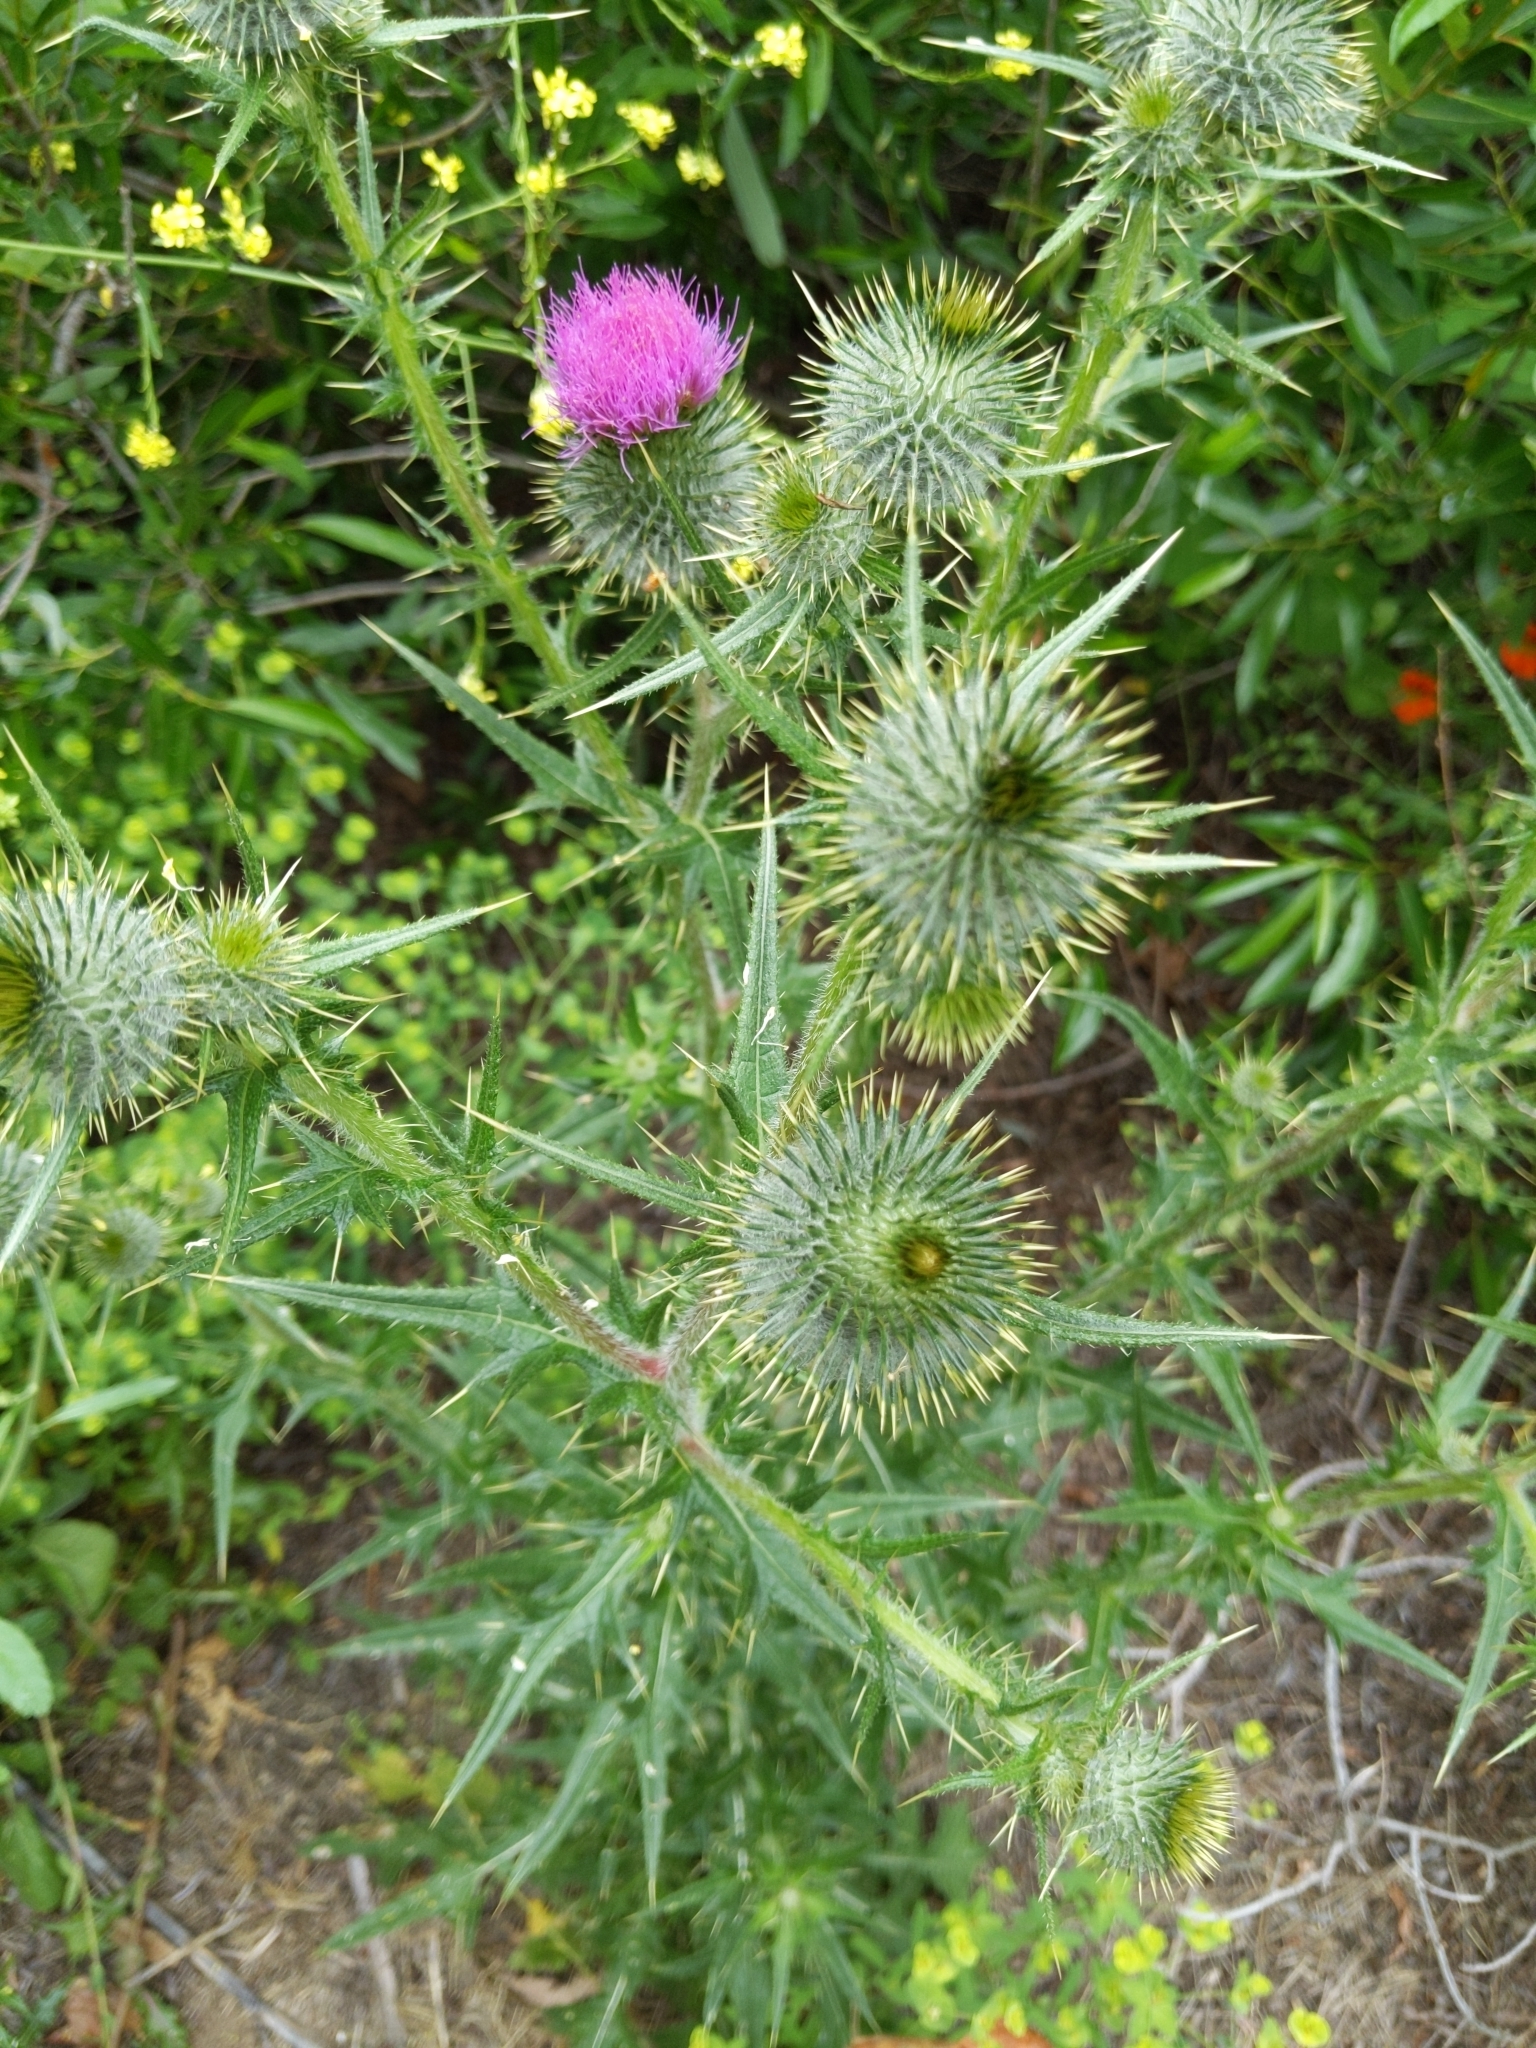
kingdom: Plantae
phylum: Tracheophyta
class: Magnoliopsida
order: Asterales
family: Asteraceae
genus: Cirsium
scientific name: Cirsium vulgare
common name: Bull thistle
